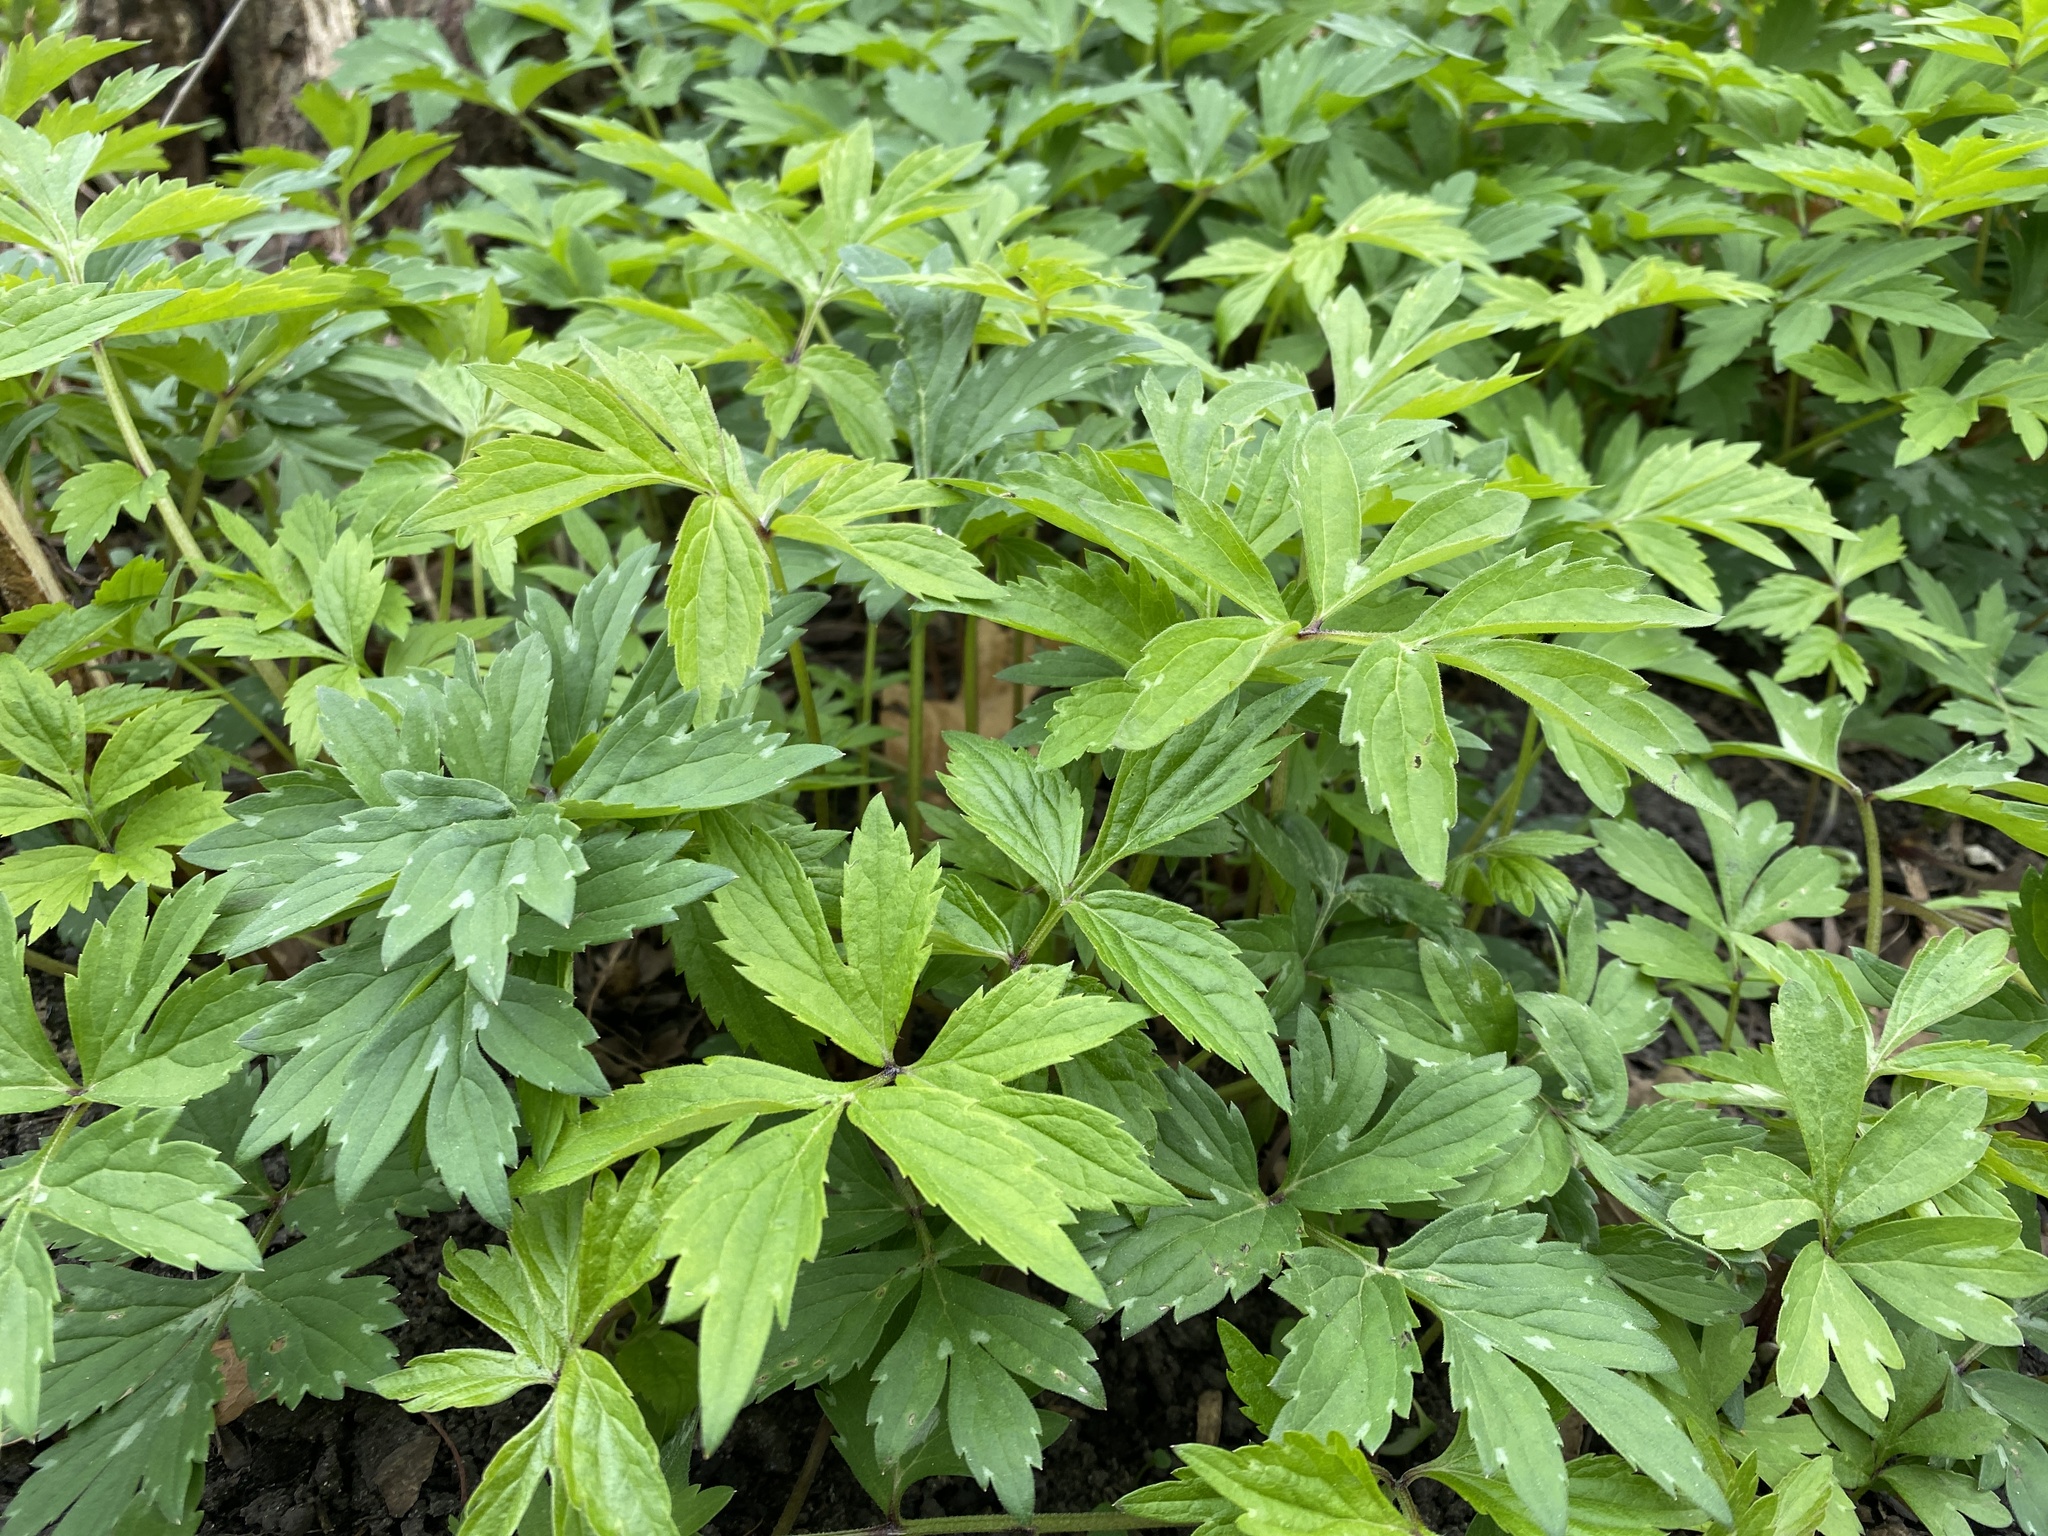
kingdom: Plantae
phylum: Tracheophyta
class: Magnoliopsida
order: Boraginales
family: Hydrophyllaceae
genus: Hydrophyllum
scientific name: Hydrophyllum virginianum
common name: Virginia waterleaf
